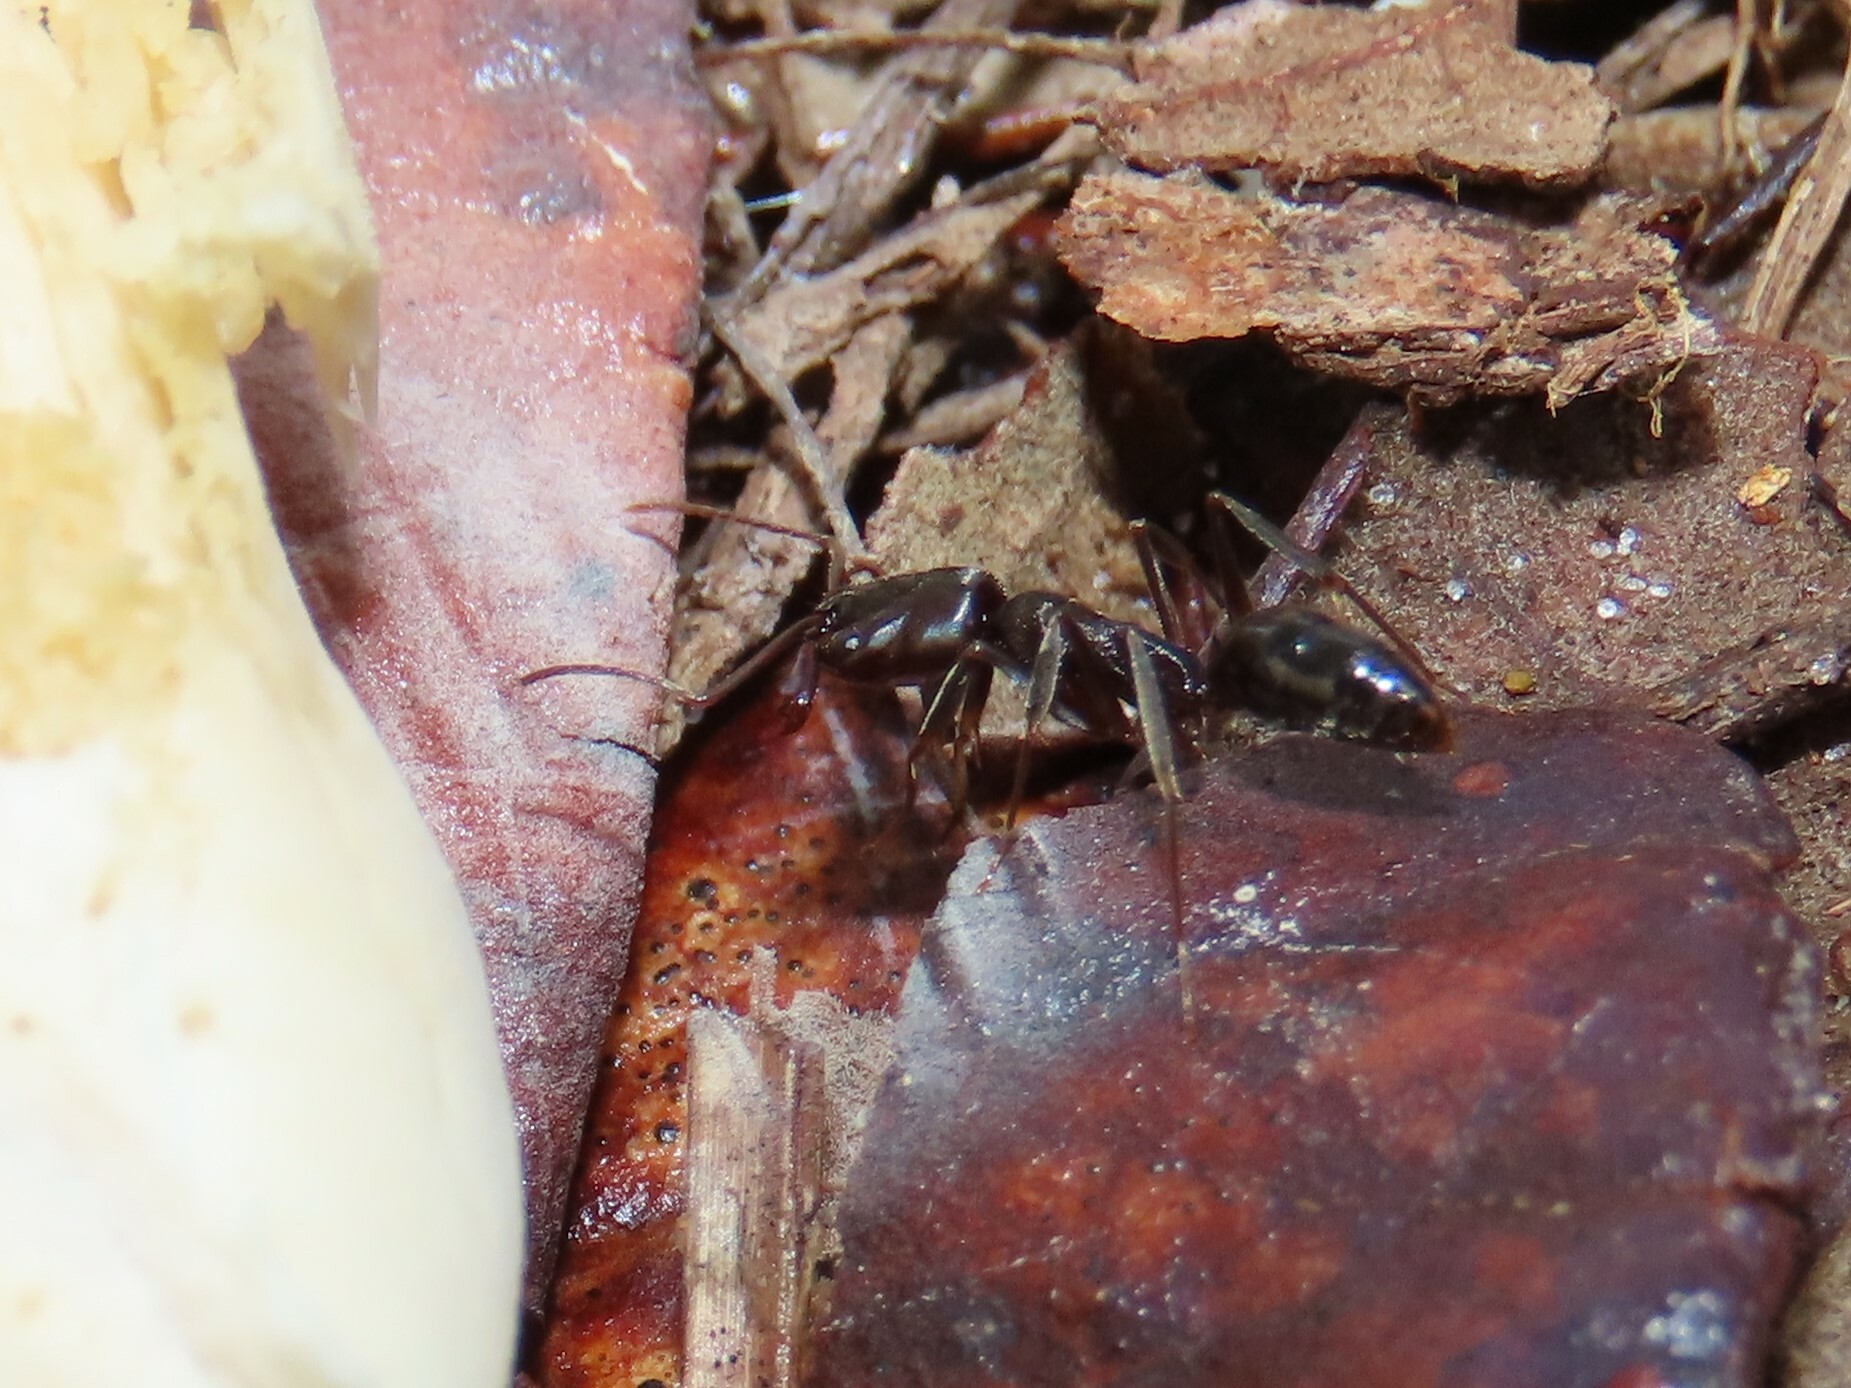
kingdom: Animalia
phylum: Arthropoda
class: Insecta
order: Hymenoptera
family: Formicidae
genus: Odontomachus
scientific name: Odontomachus brunneus
